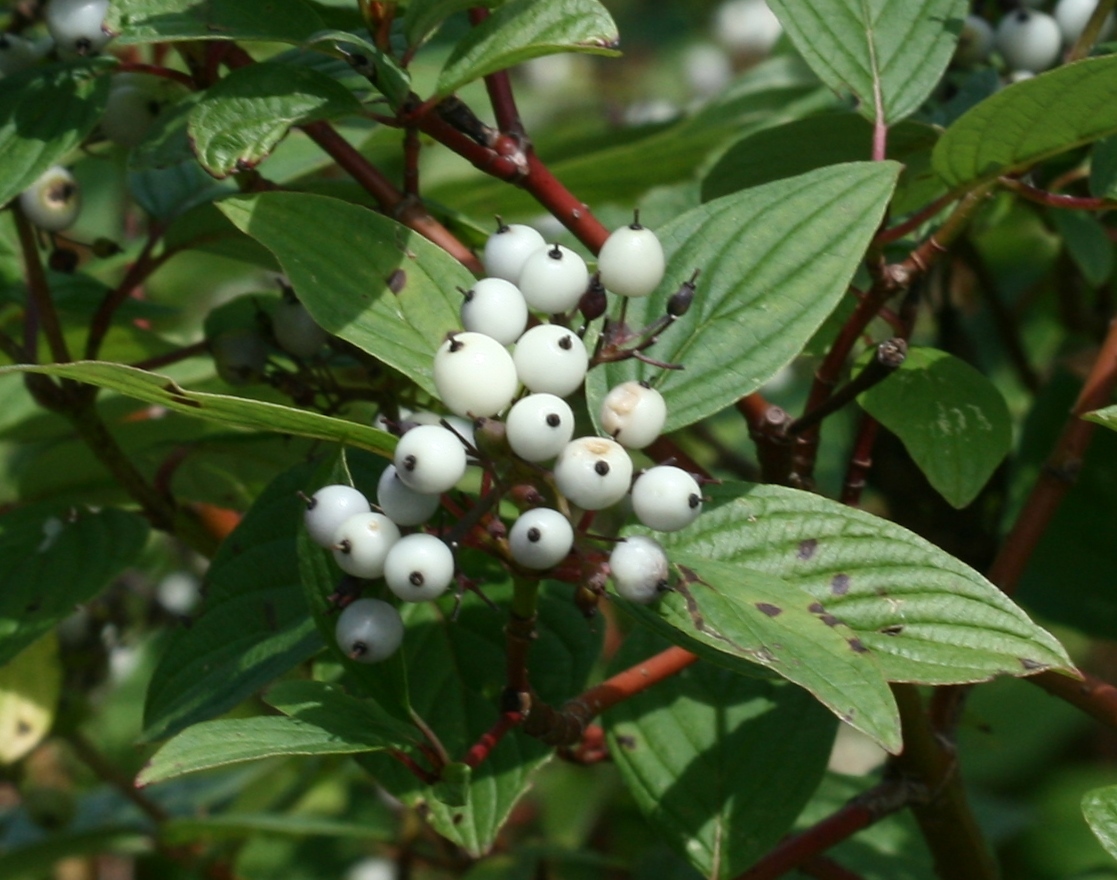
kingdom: Plantae
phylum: Tracheophyta
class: Magnoliopsida
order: Cornales
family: Cornaceae
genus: Cornus
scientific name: Cornus sericea
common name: Red-osier dogwood
